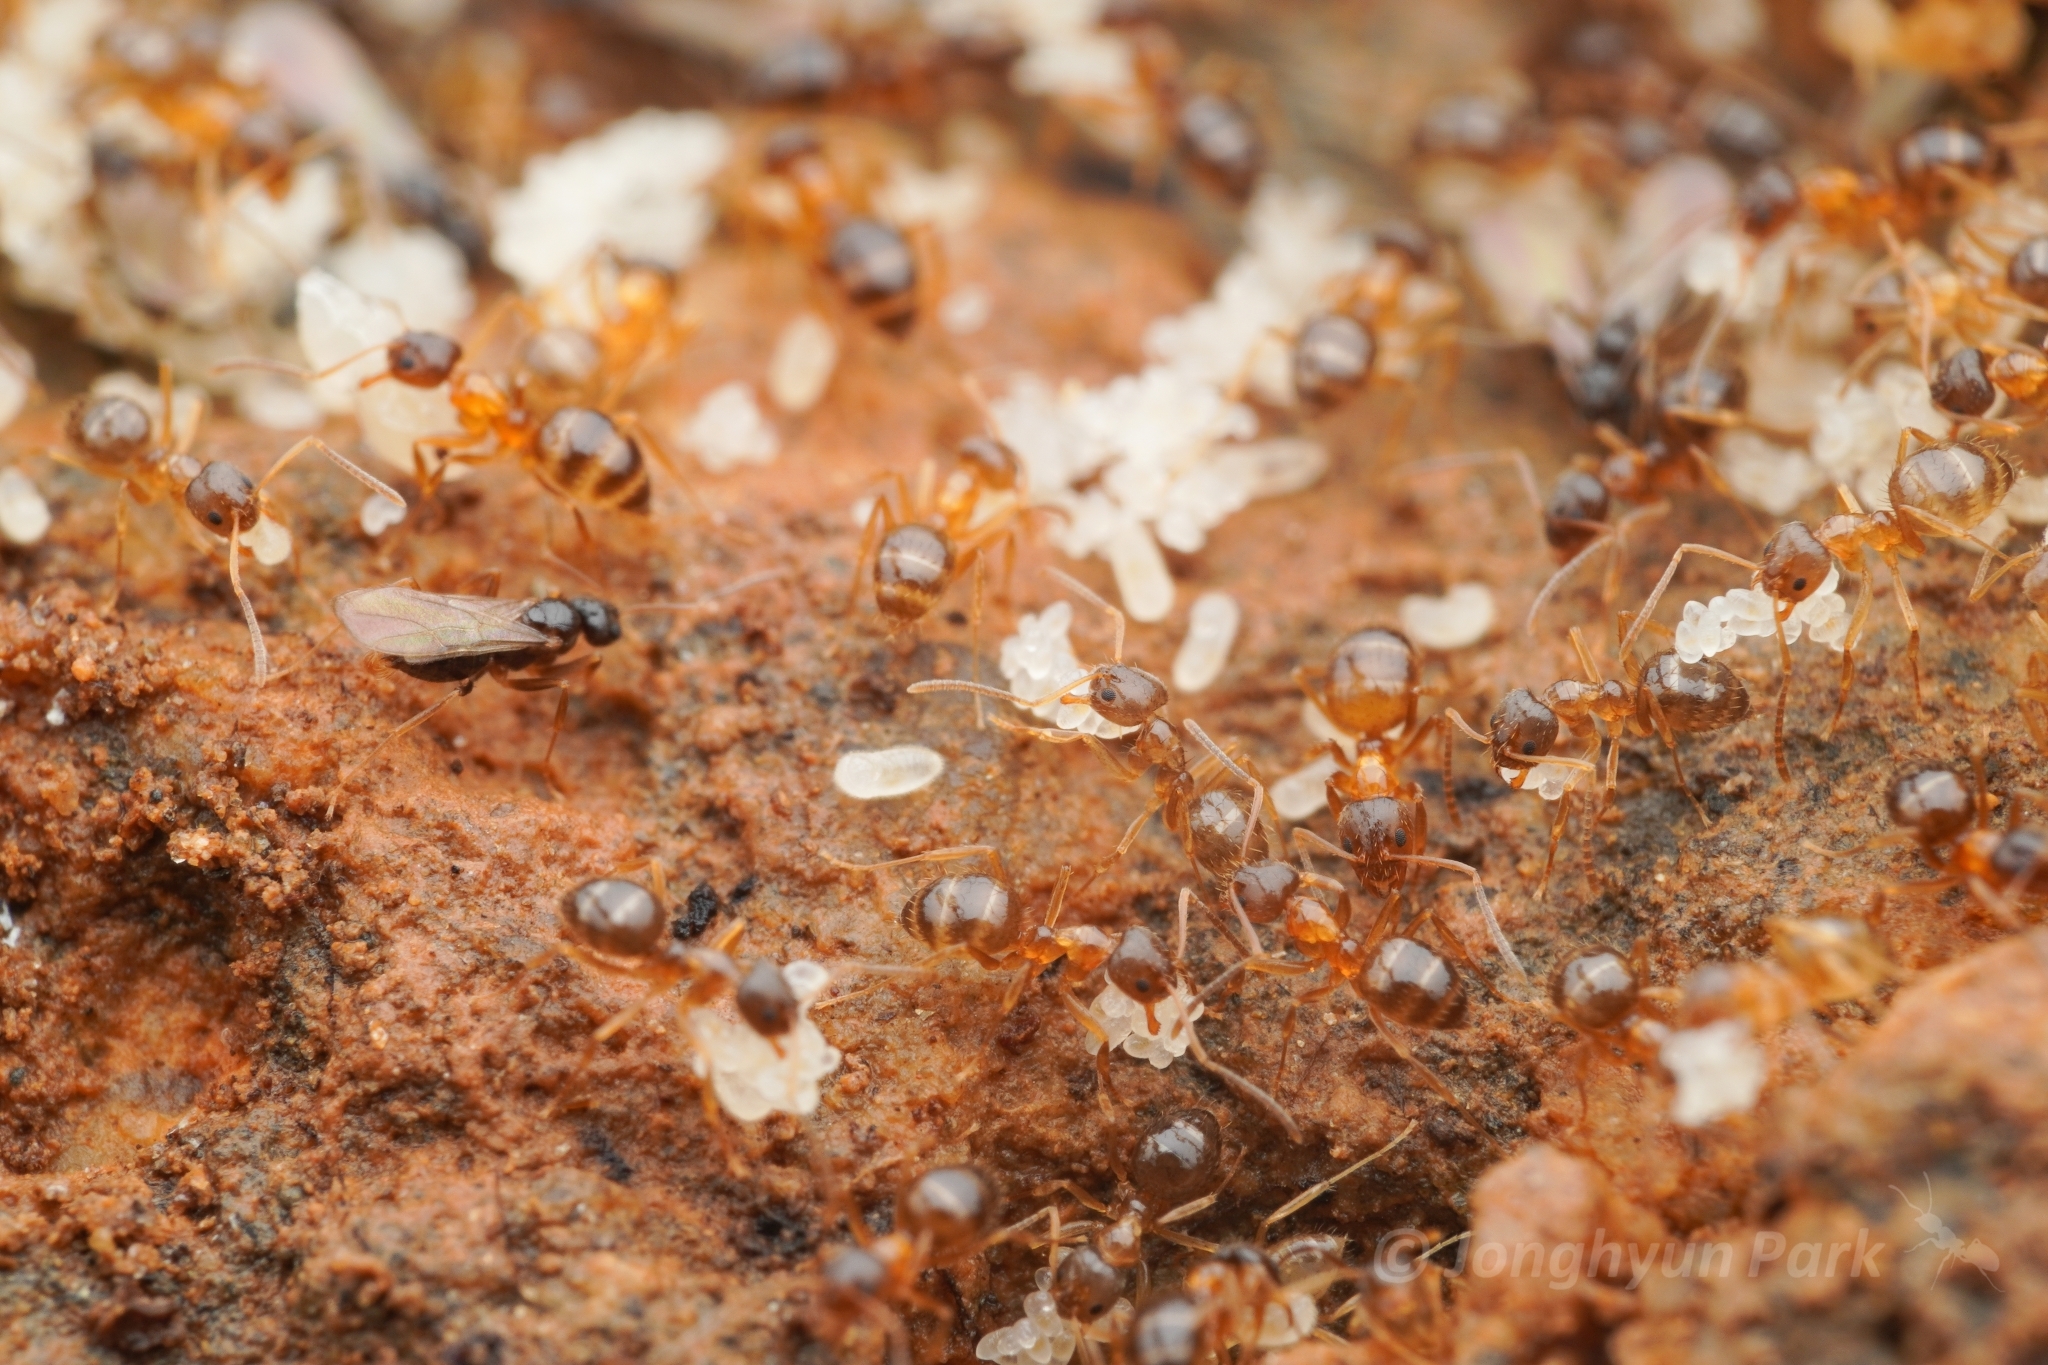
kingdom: Animalia
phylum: Arthropoda
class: Insecta
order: Hymenoptera
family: Formicidae
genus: Paratrechina
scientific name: Paratrechina flavipes
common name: Eastern asian formicine ant
